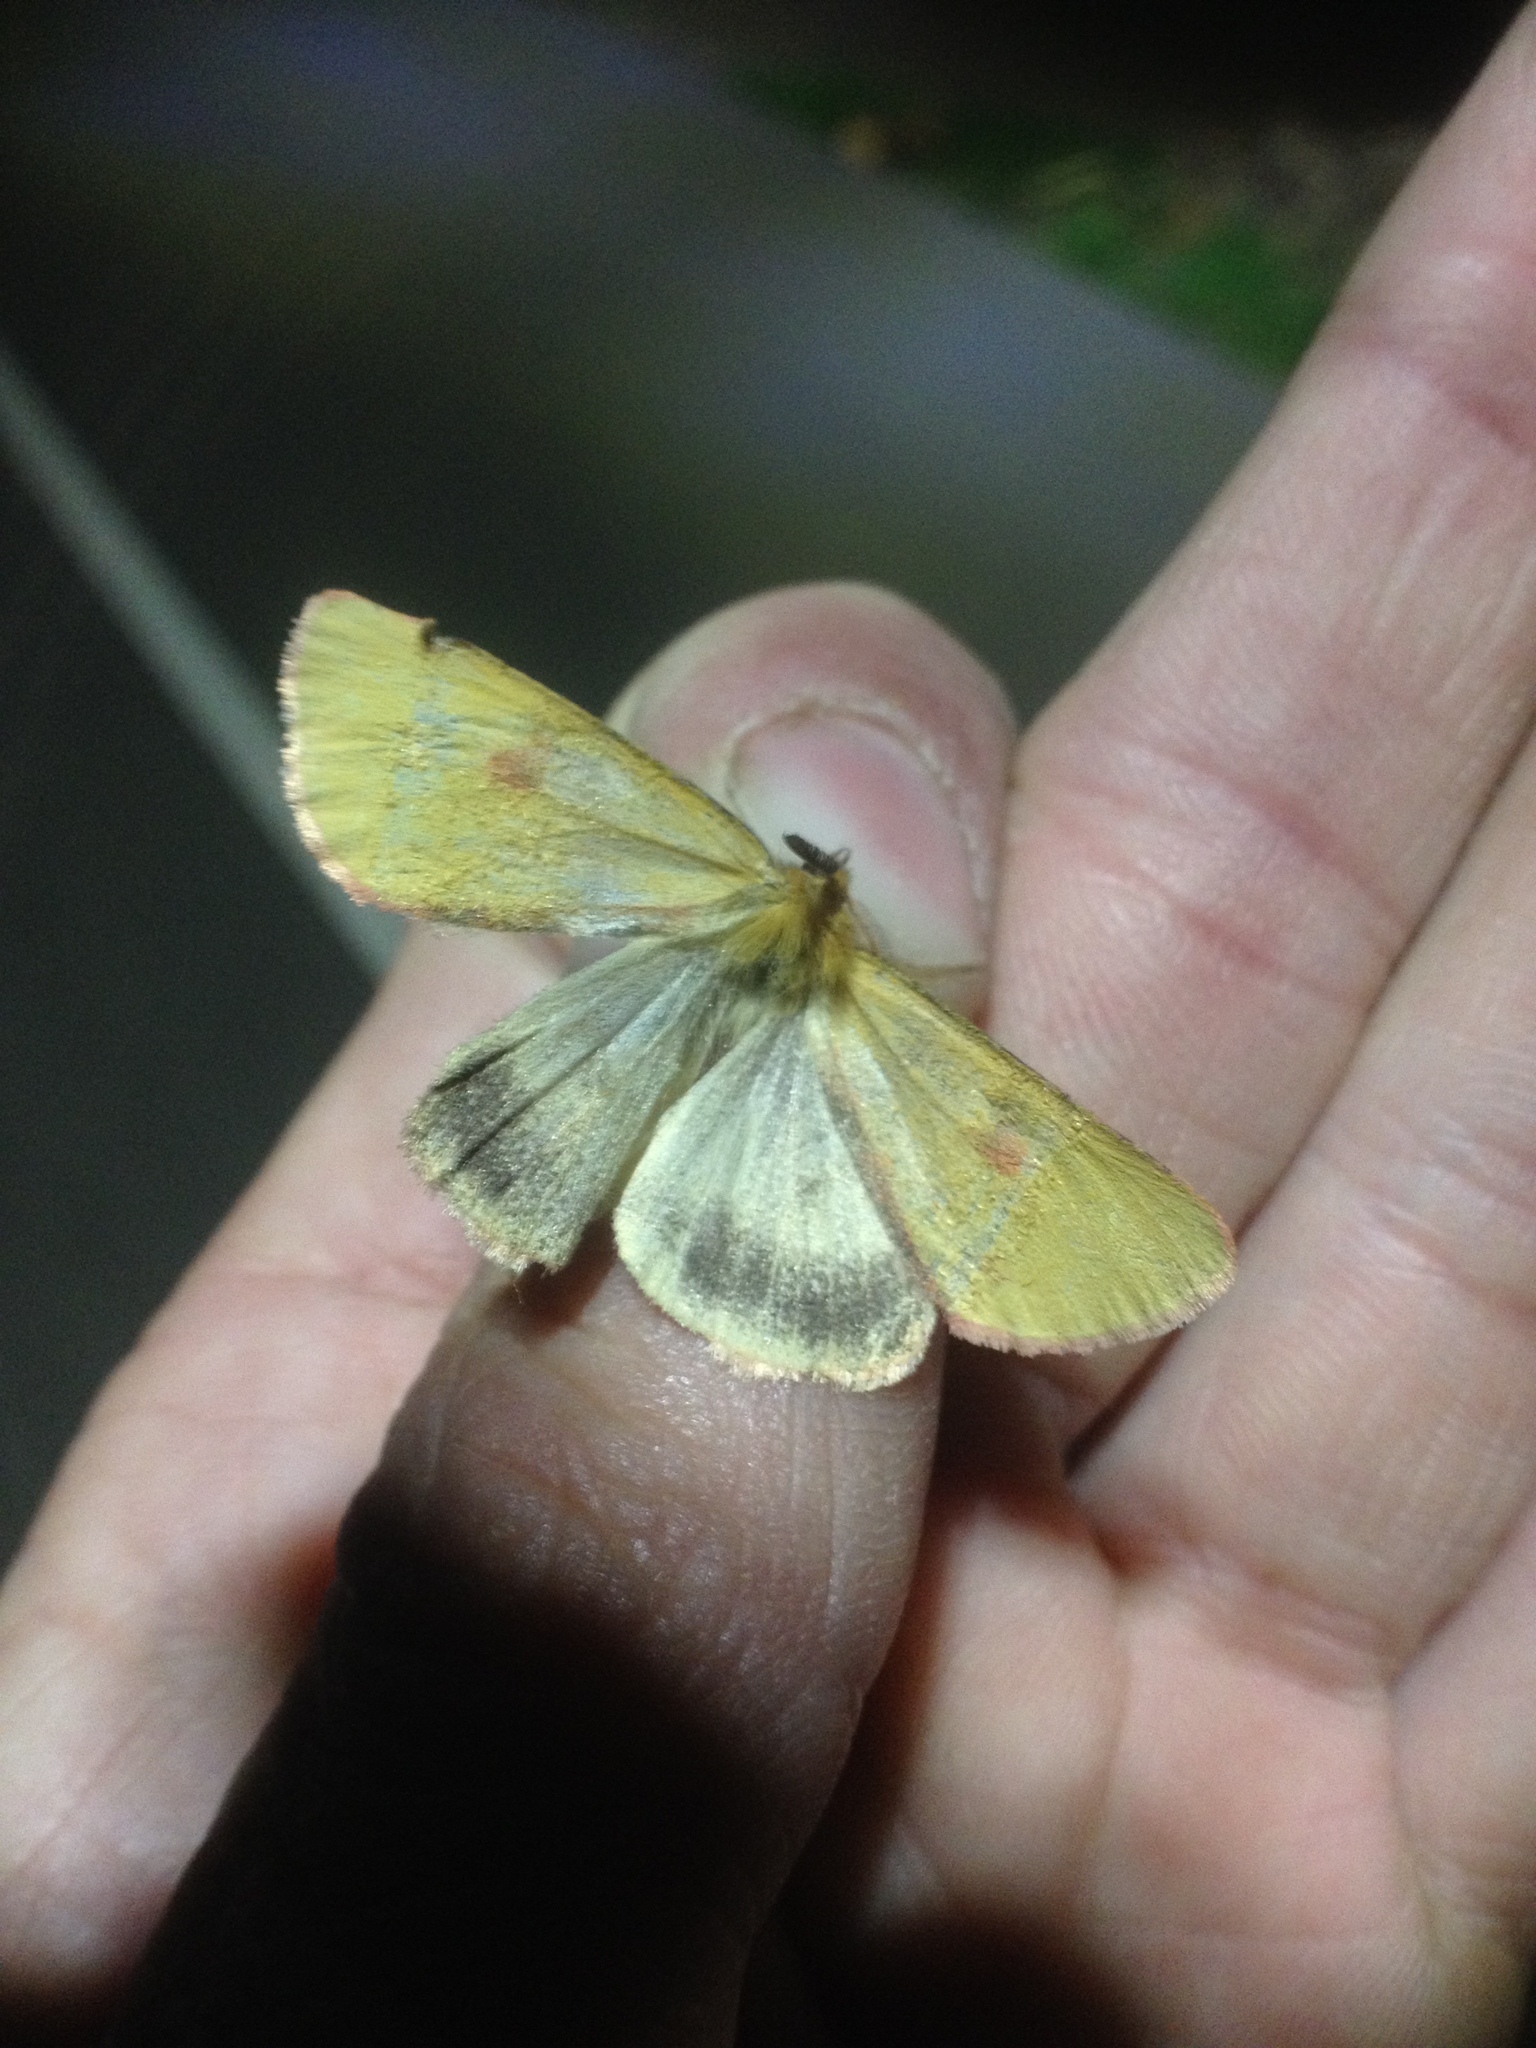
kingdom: Animalia
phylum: Arthropoda
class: Insecta
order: Lepidoptera
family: Erebidae
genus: Diacrisia
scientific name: Diacrisia sannio
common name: Clouded buff
